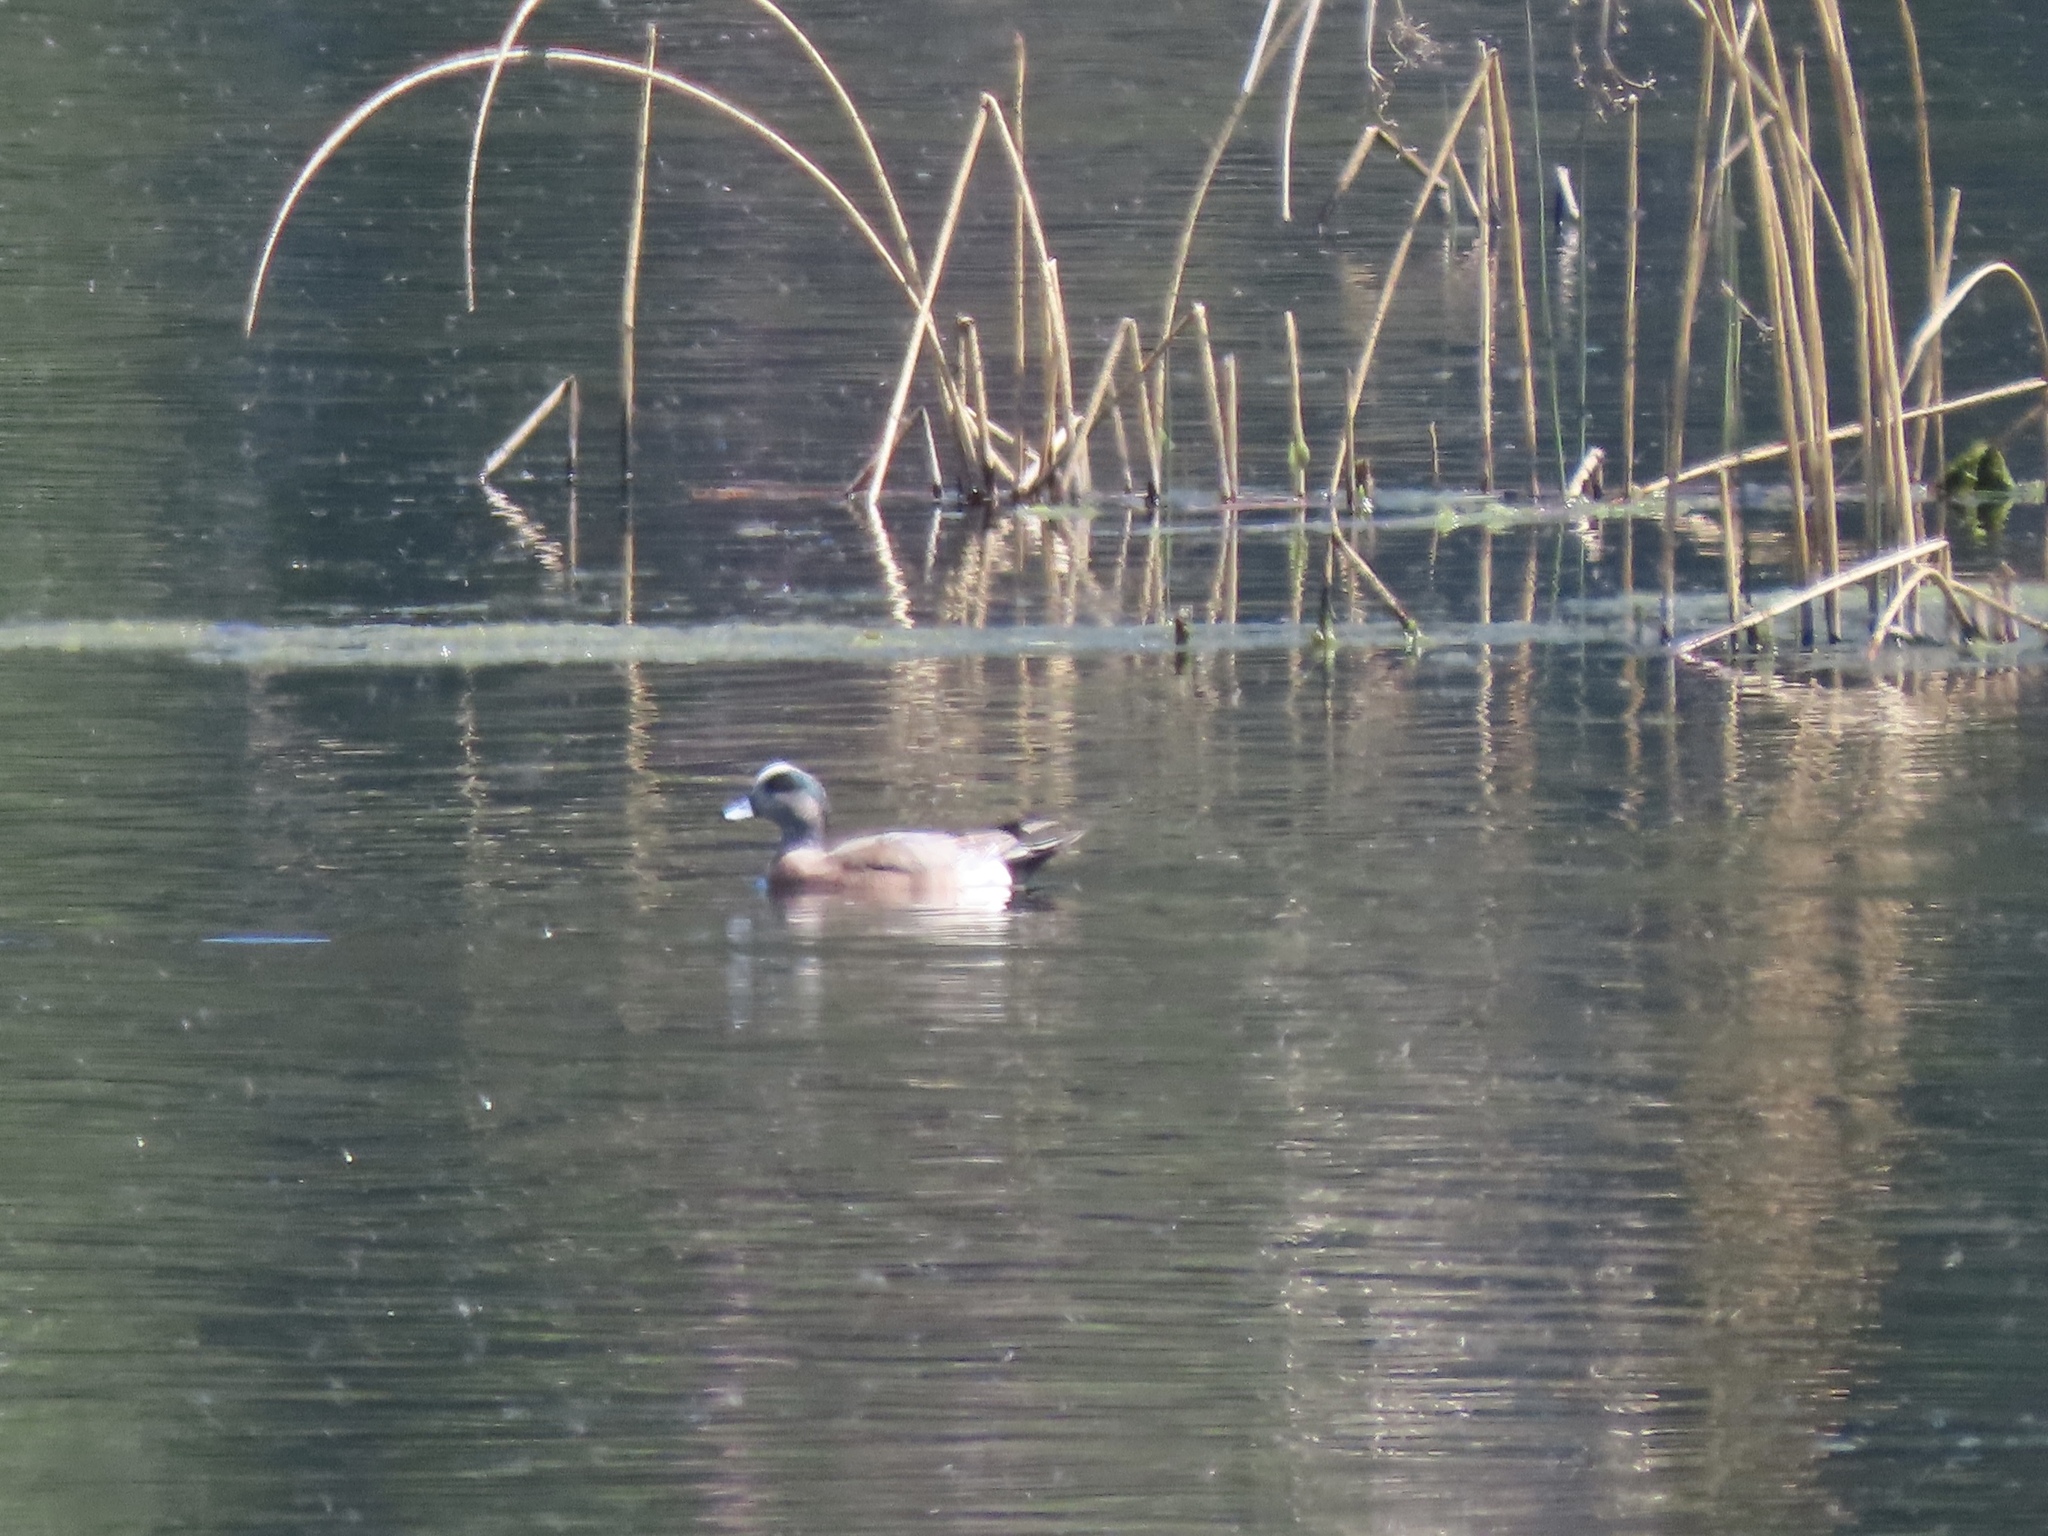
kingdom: Animalia
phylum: Chordata
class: Aves
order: Anseriformes
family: Anatidae
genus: Mareca
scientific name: Mareca americana
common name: American wigeon
